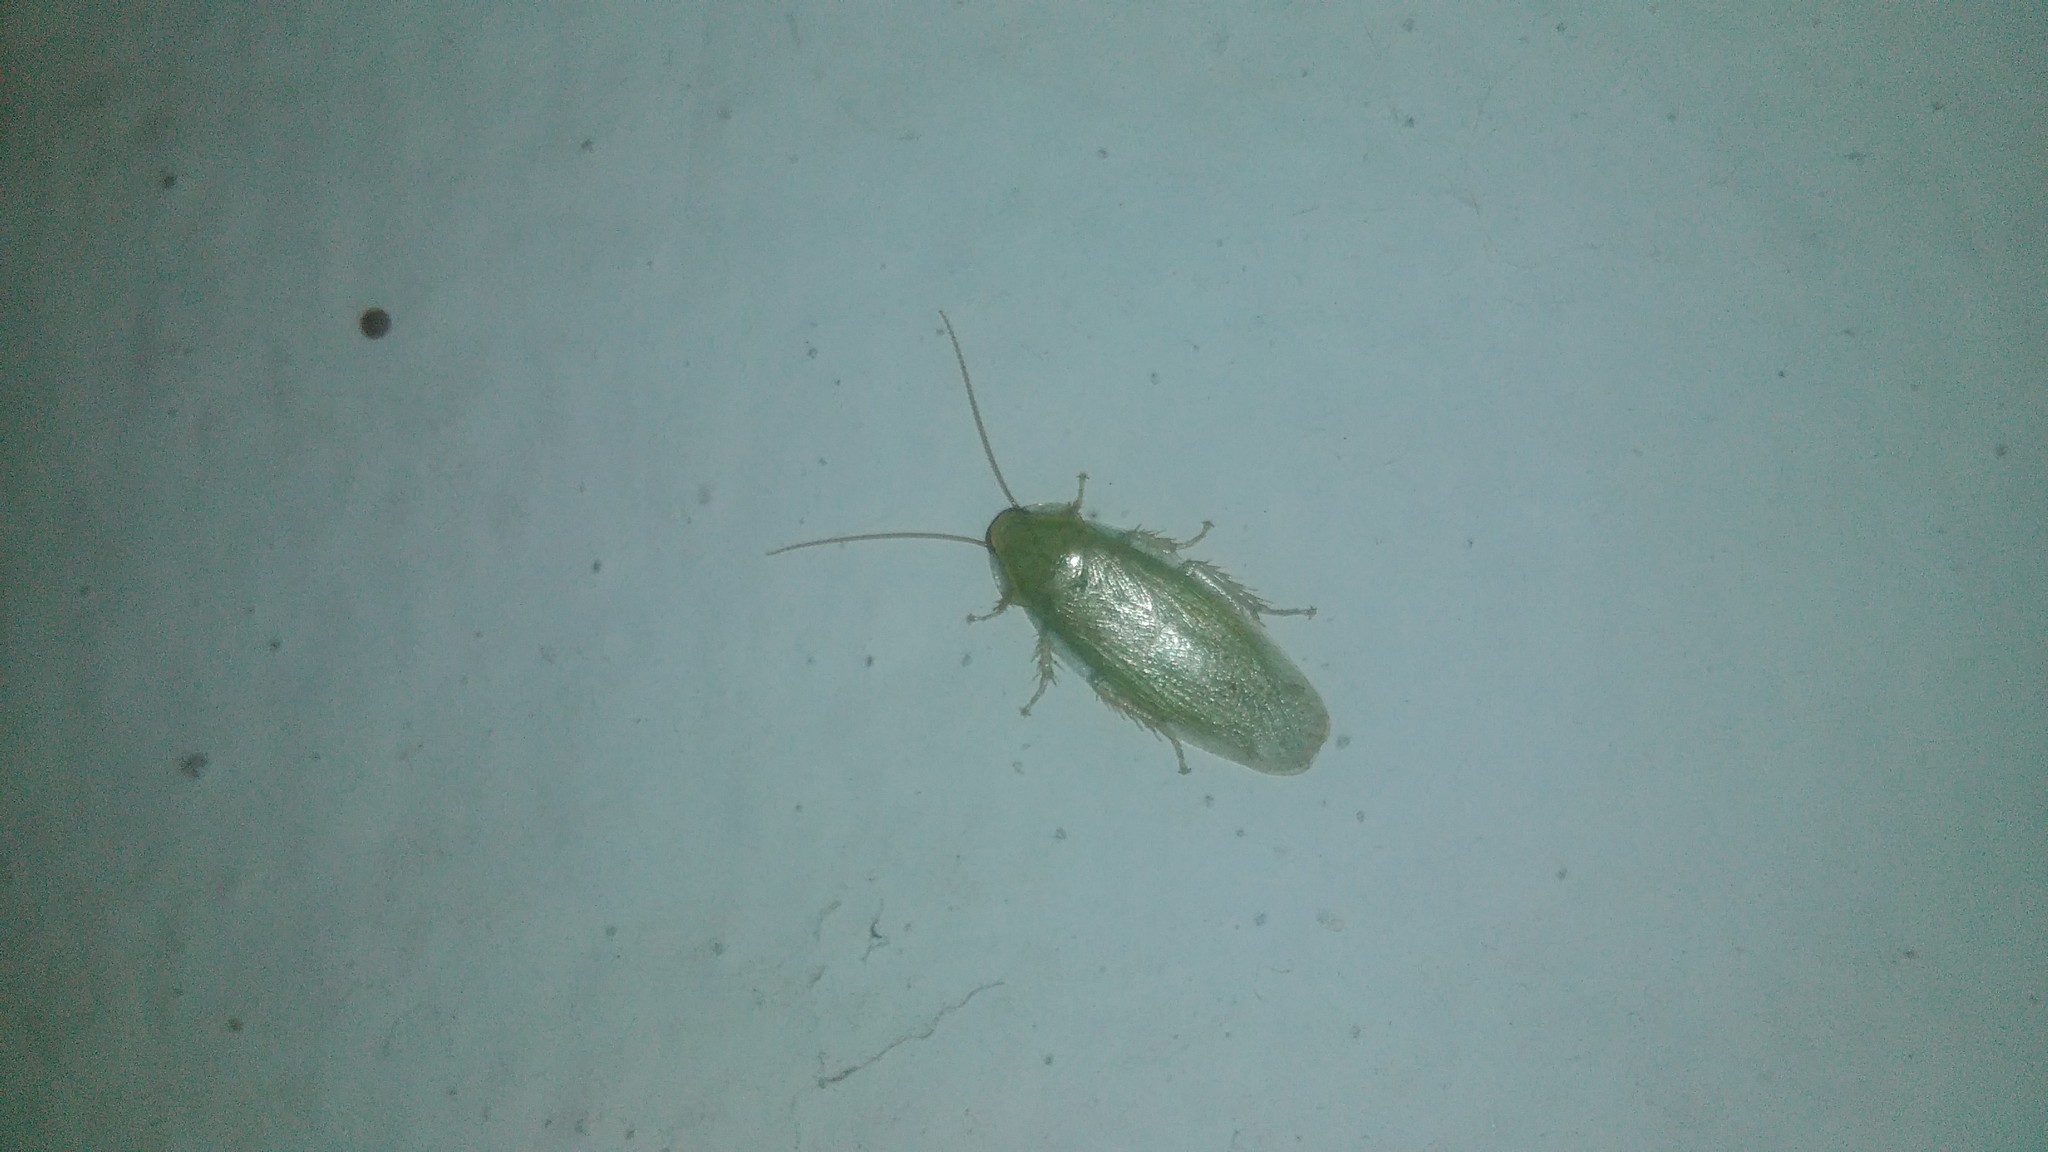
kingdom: Animalia
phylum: Arthropoda
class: Insecta
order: Blattodea
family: Blaberidae
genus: Panchlora
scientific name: Panchlora thalassina
